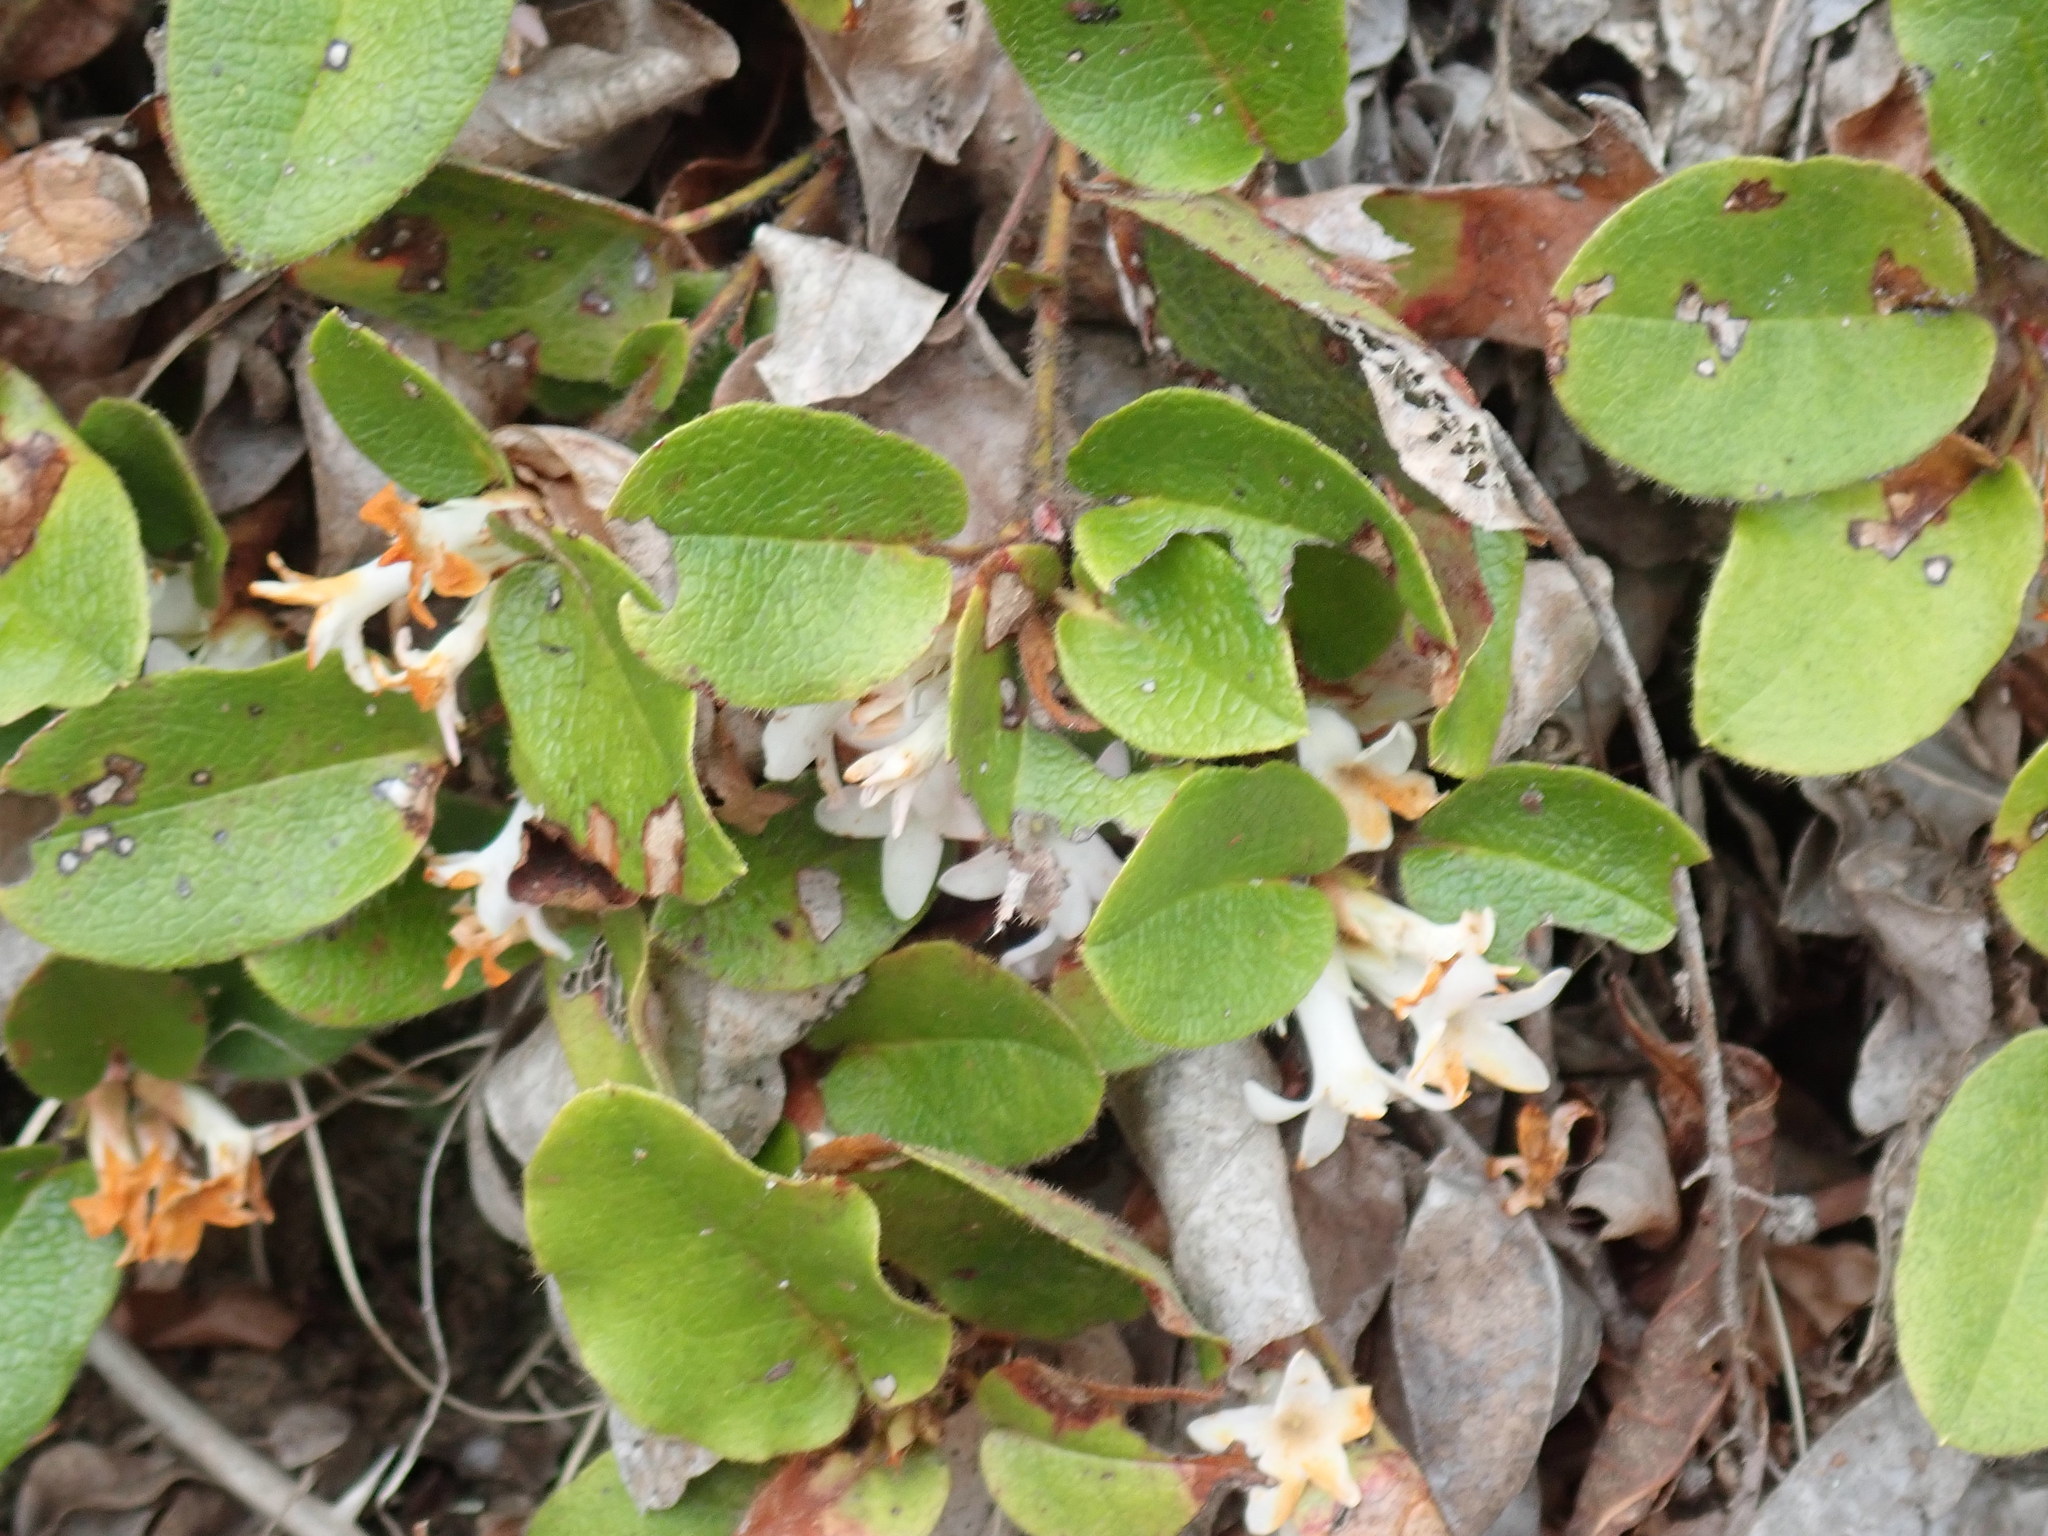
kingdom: Plantae
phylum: Tracheophyta
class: Magnoliopsida
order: Ericales
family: Ericaceae
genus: Epigaea
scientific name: Epigaea repens
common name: Gravelroot
